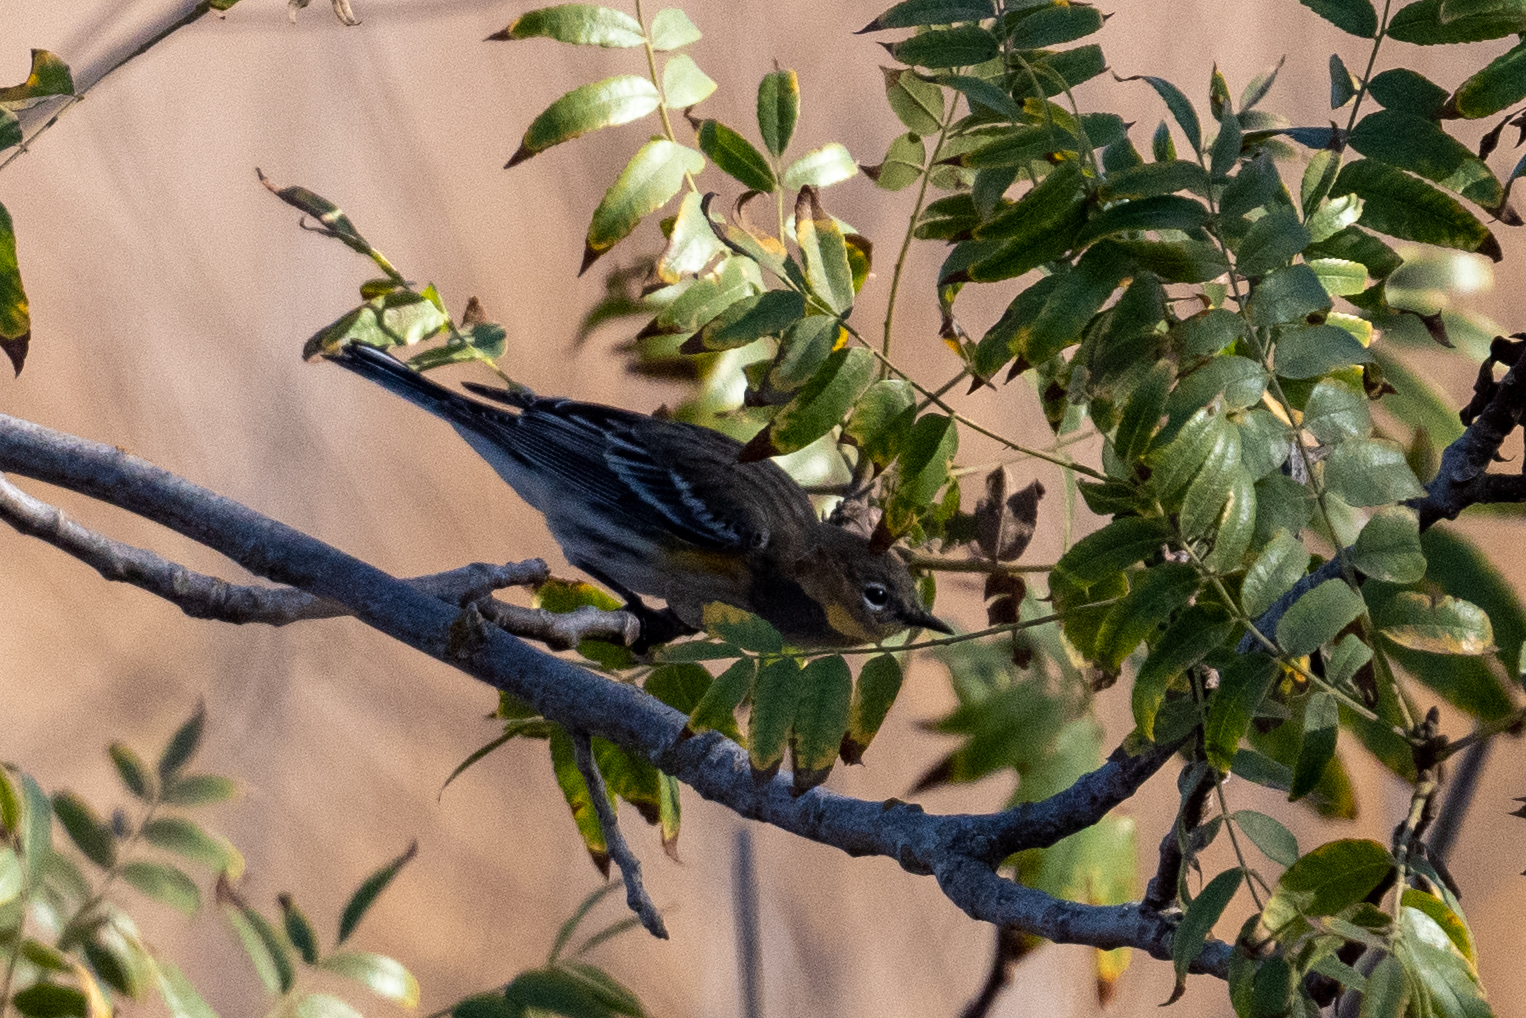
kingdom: Animalia
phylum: Chordata
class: Aves
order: Passeriformes
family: Parulidae
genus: Setophaga
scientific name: Setophaga coronata
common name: Myrtle warbler
